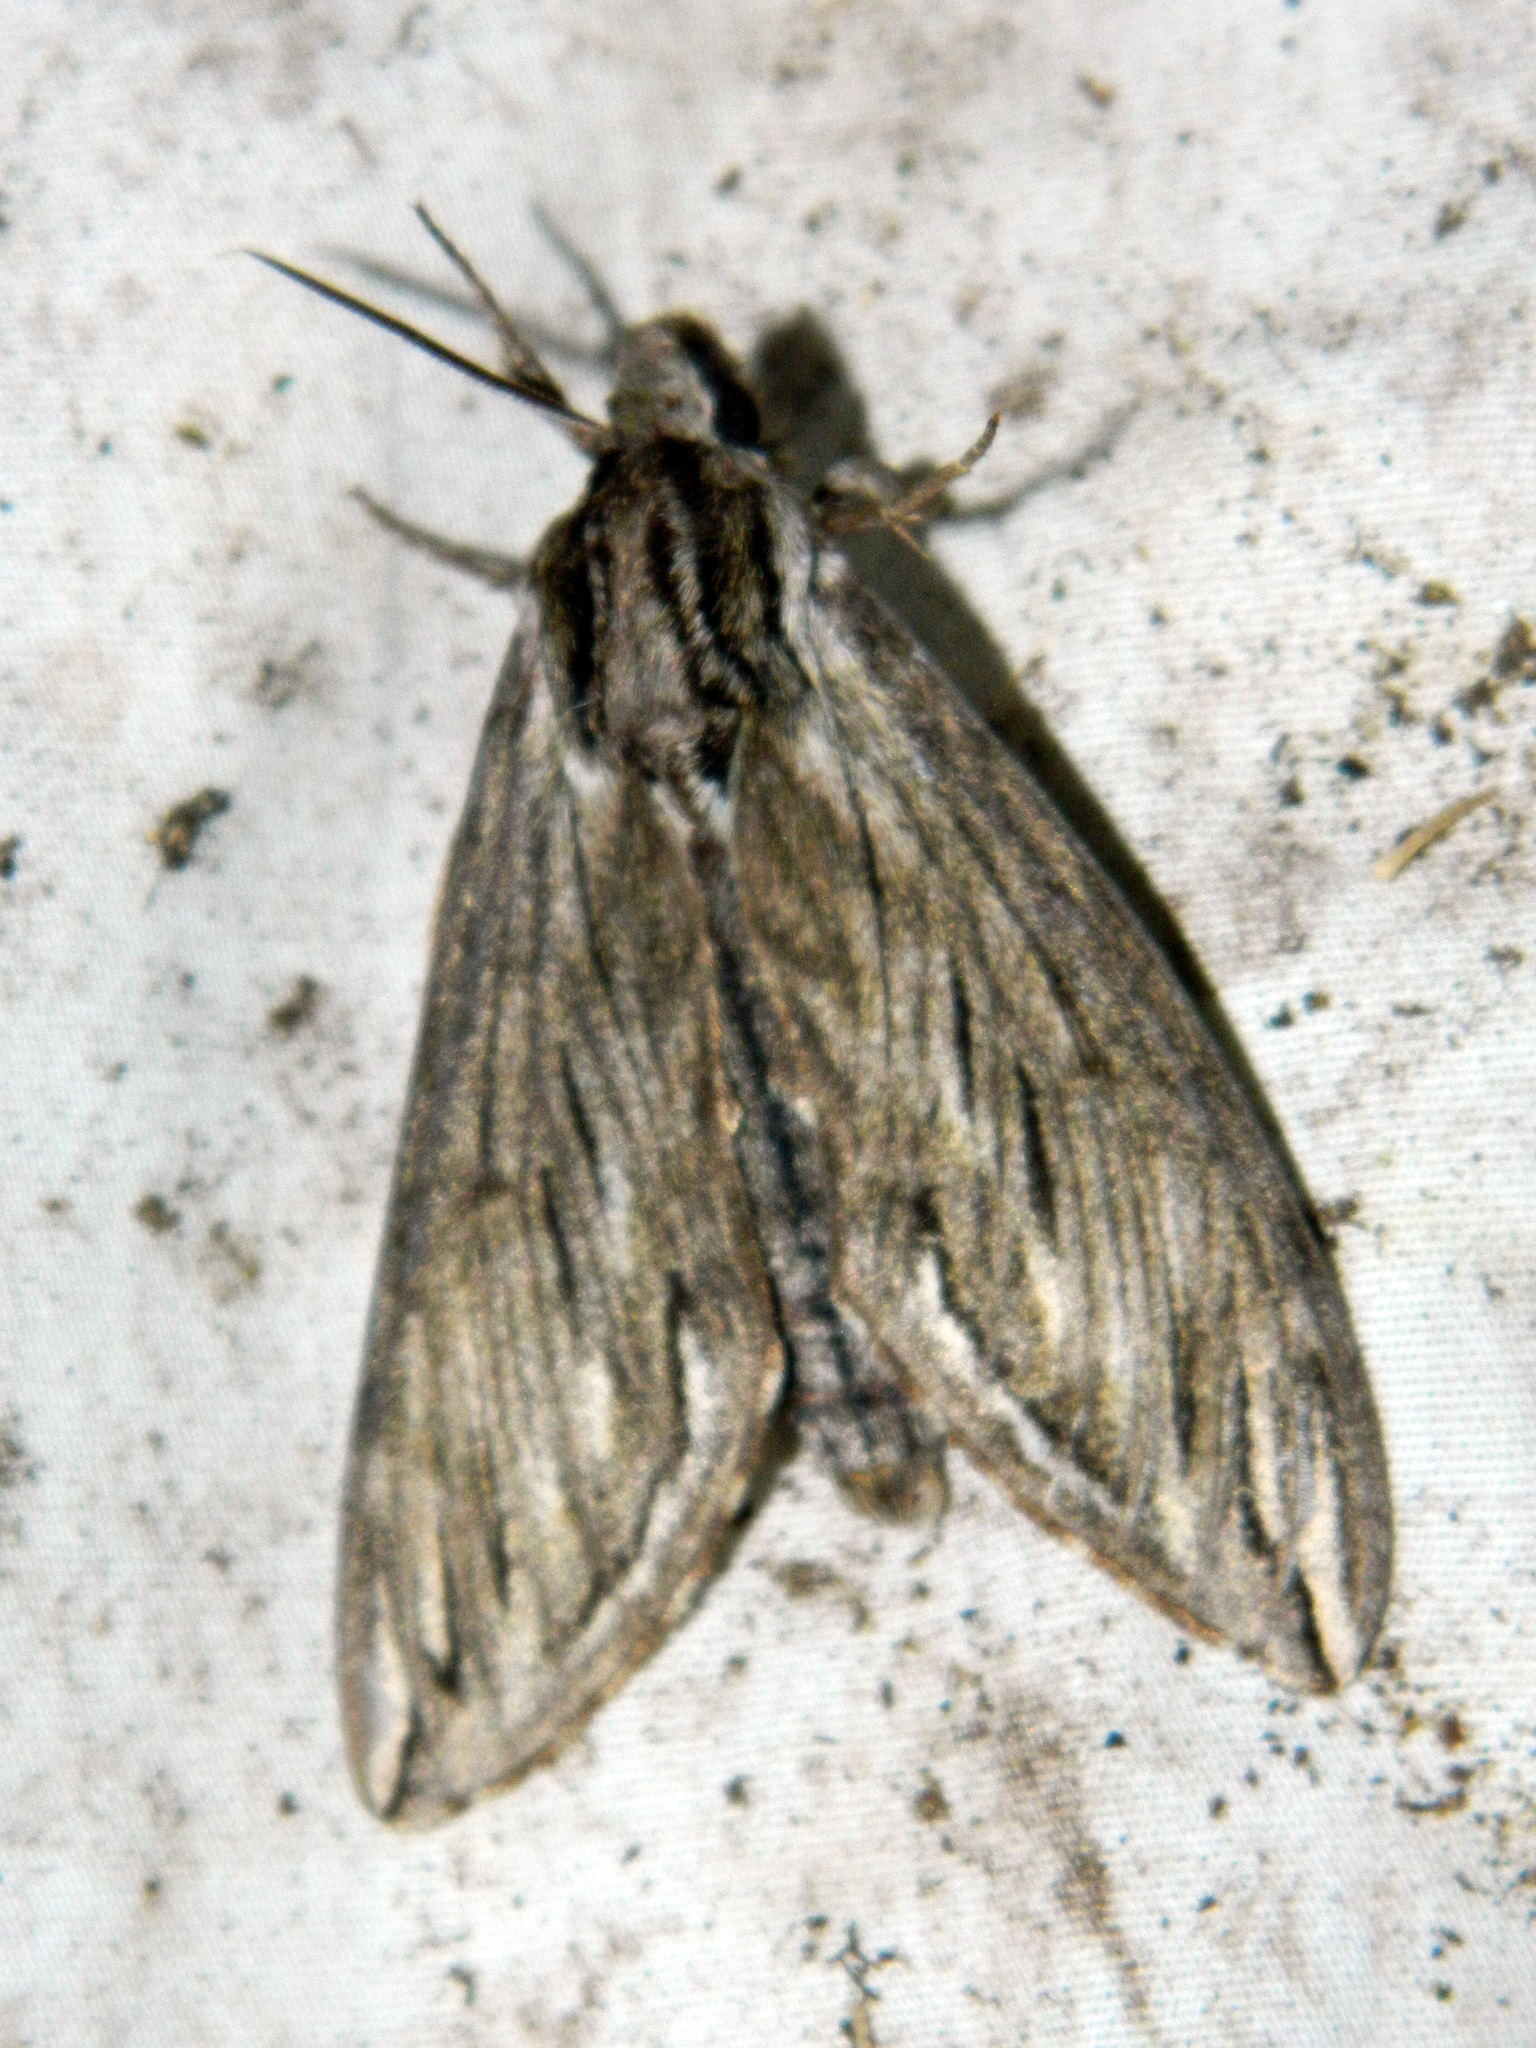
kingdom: Animalia
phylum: Arthropoda
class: Insecta
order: Lepidoptera
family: Sphingidae
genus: Sphinx
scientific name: Sphinx canadensis
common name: Canadian sphinx
